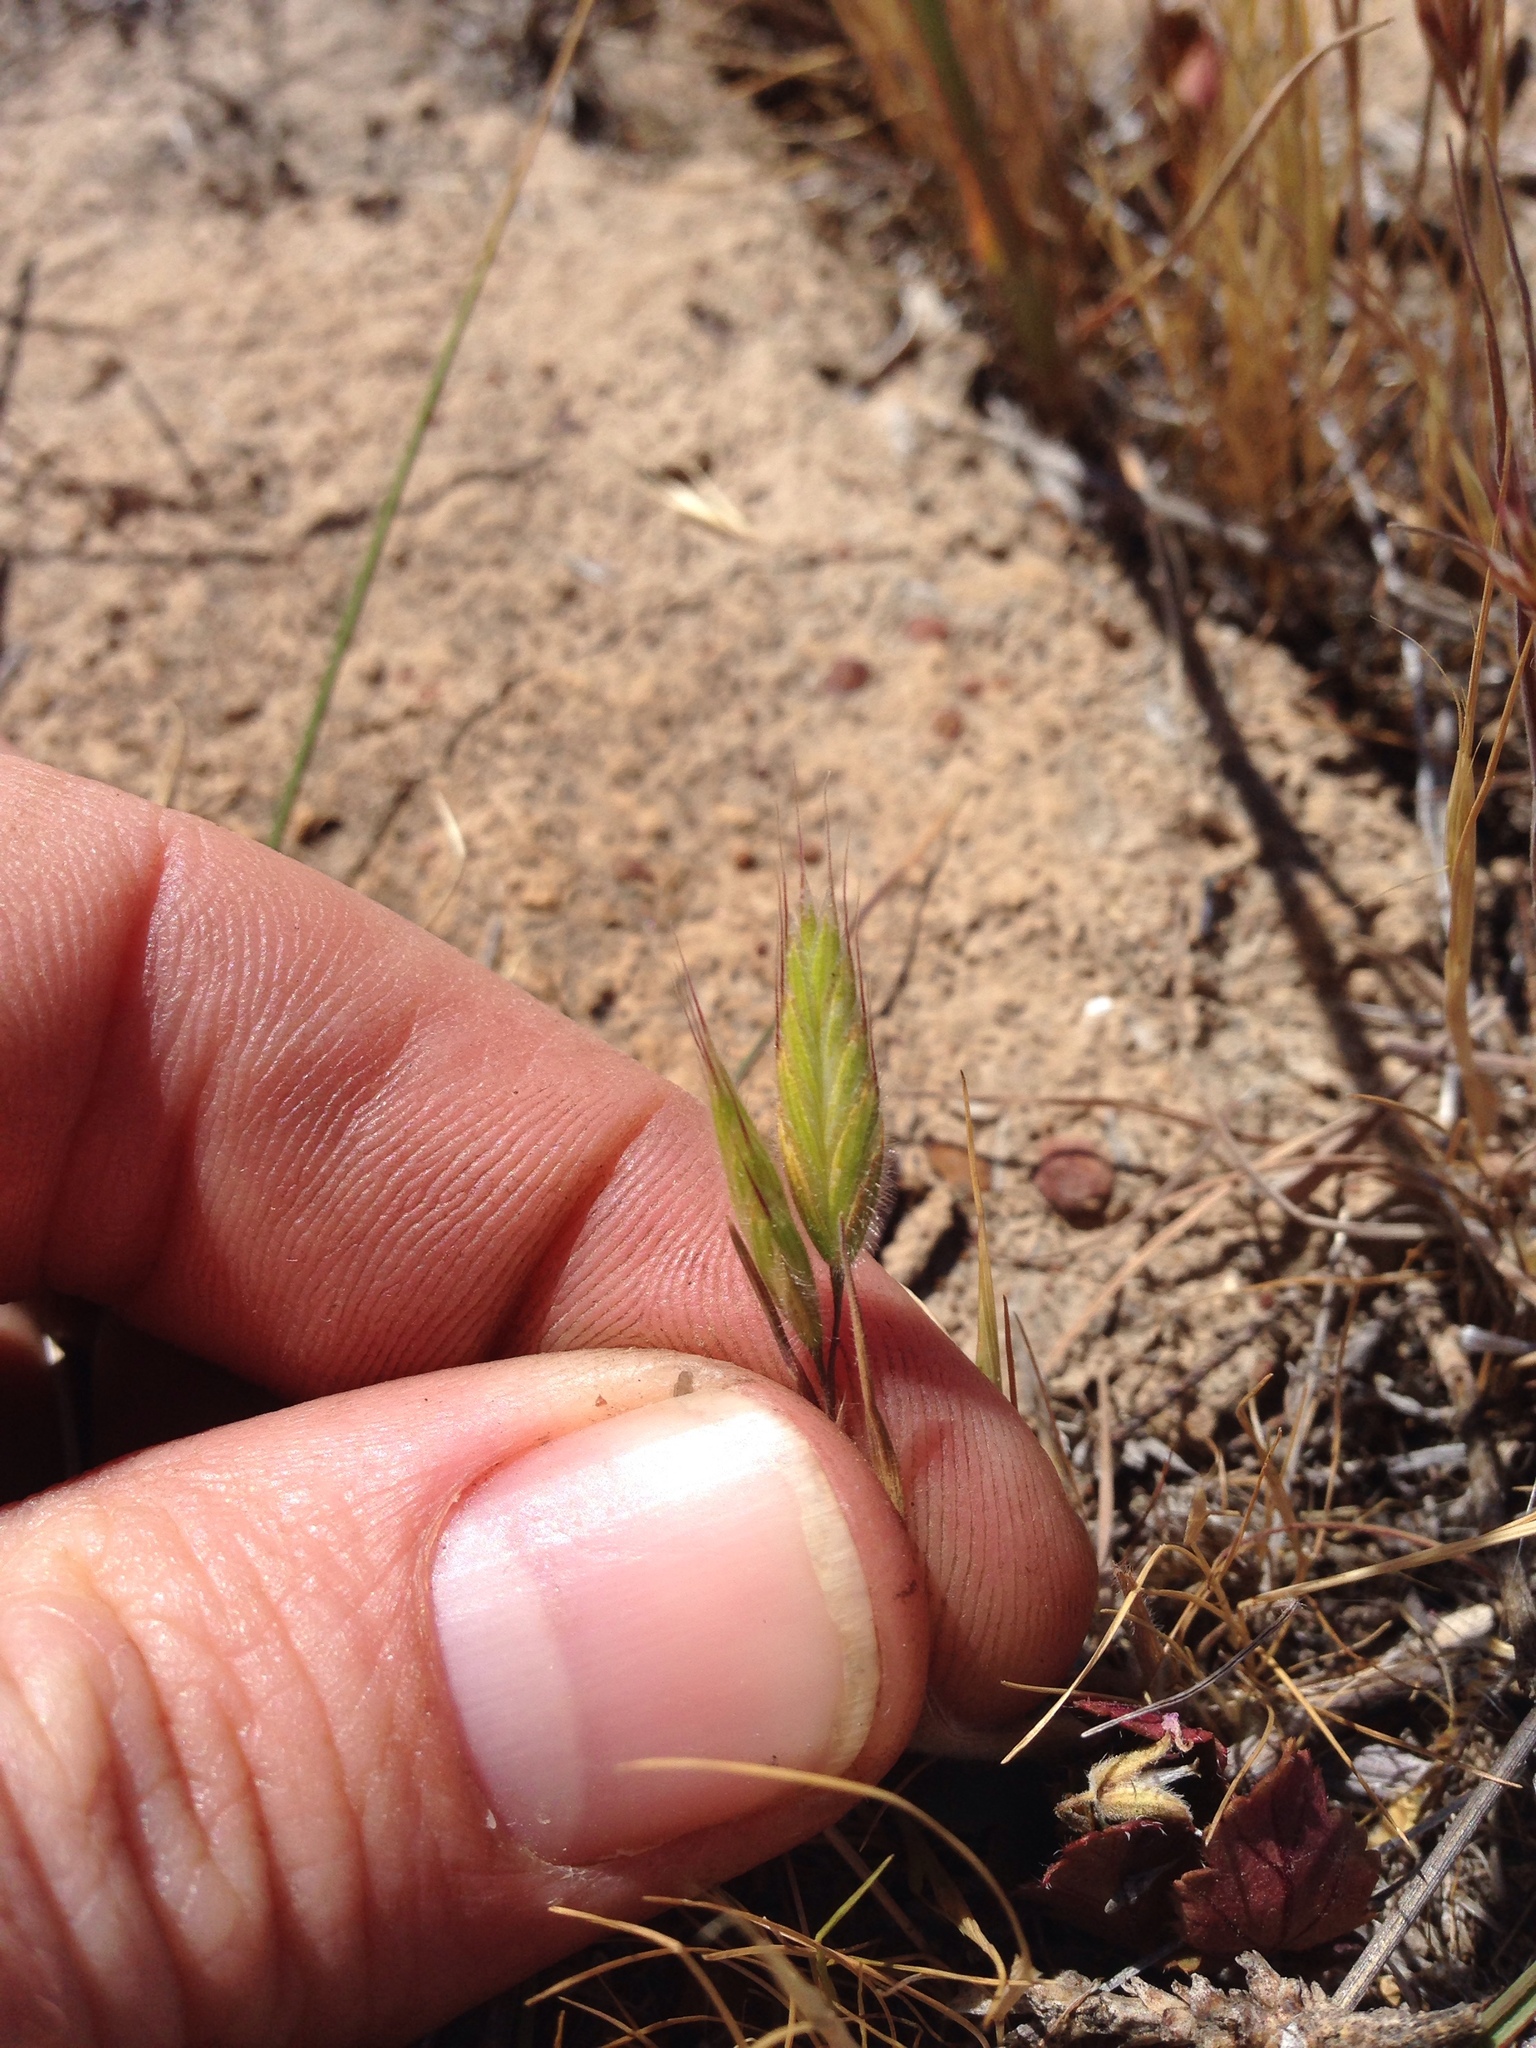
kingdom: Plantae
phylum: Tracheophyta
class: Liliopsida
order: Poales
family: Poaceae
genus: Bromus
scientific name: Bromus hordeaceus
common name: Soft brome
